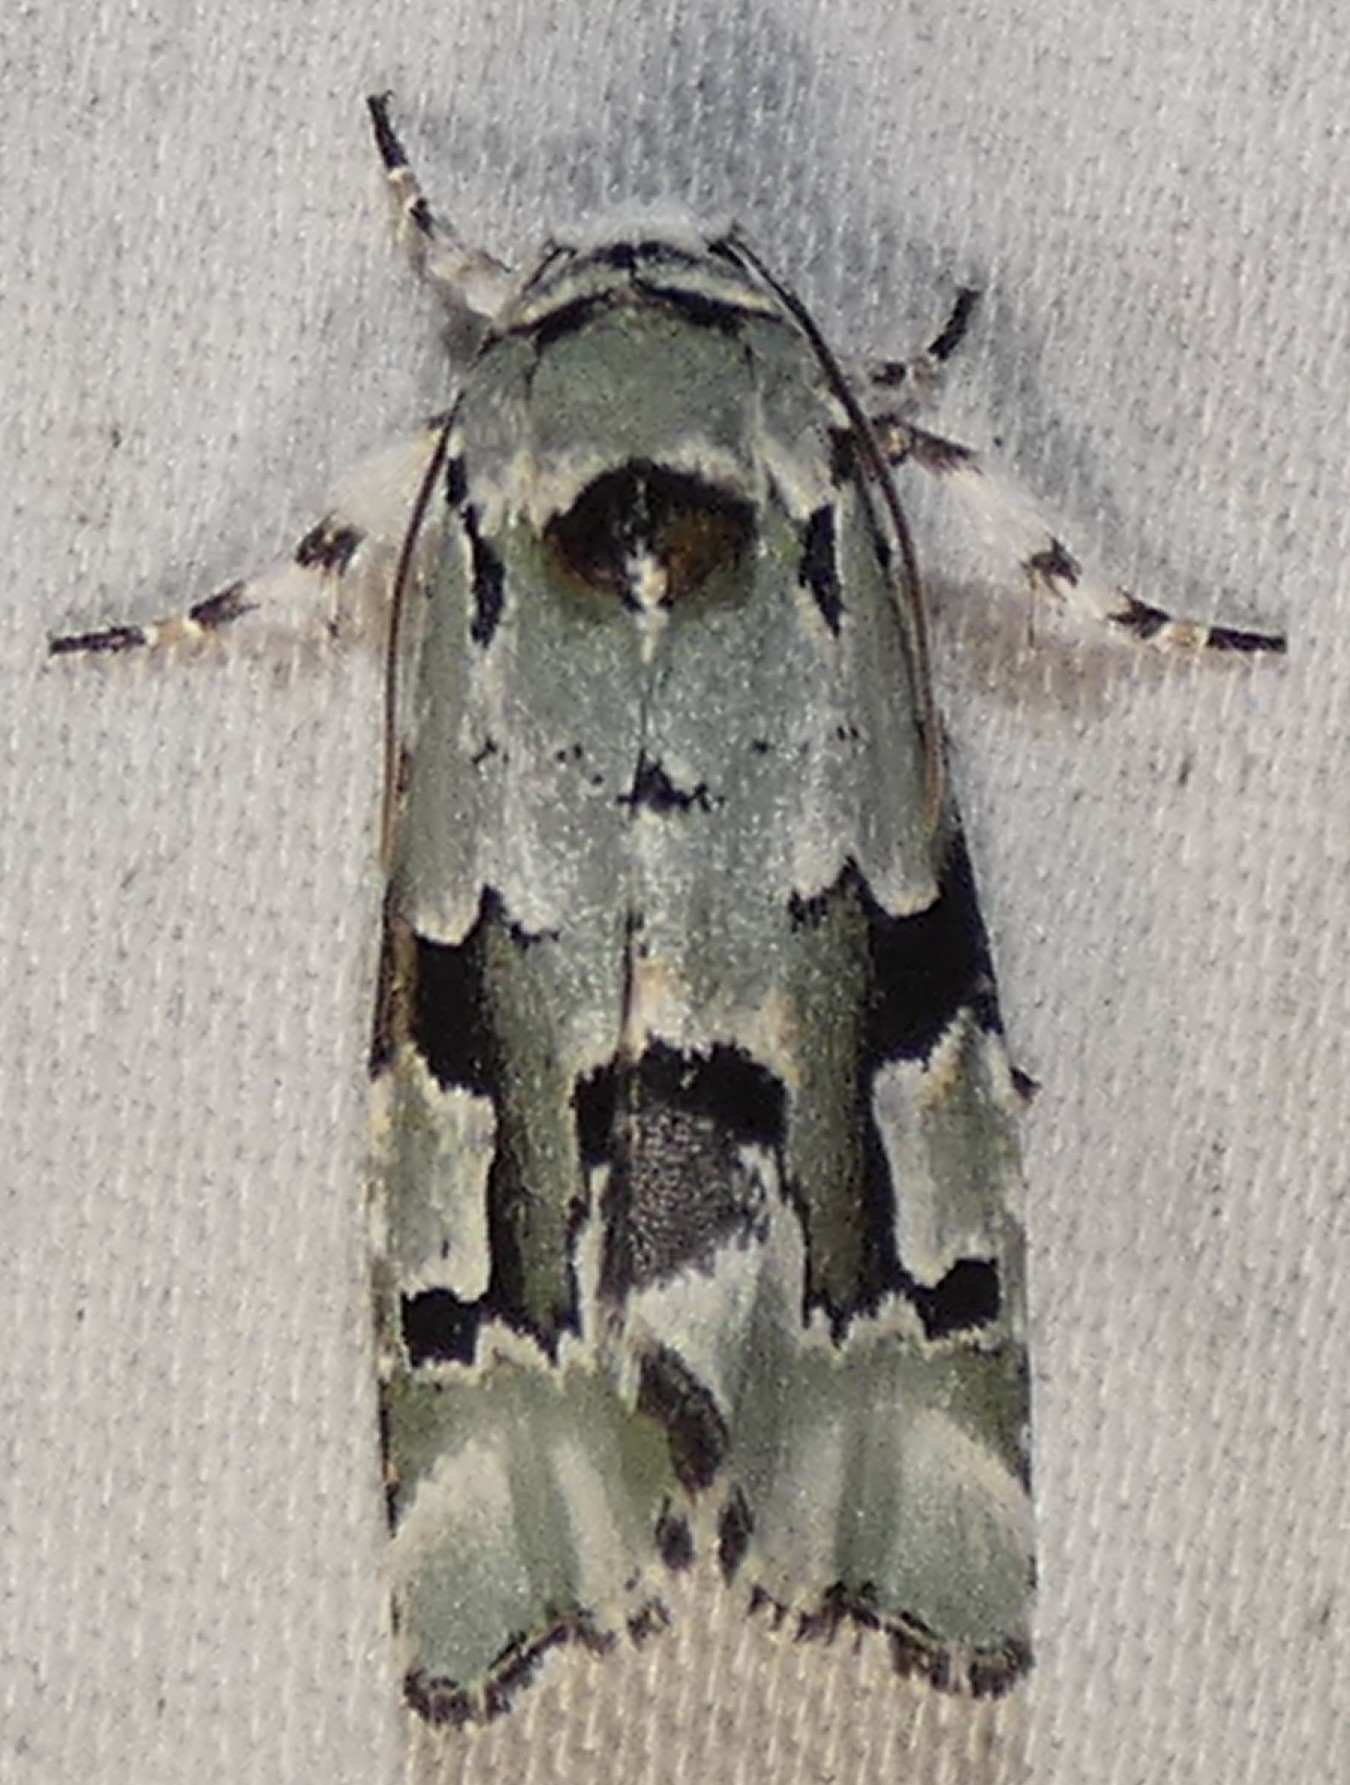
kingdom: Animalia
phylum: Arthropoda
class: Insecta
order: Lepidoptera
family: Noctuidae
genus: Emarginea
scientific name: Emarginea percara
